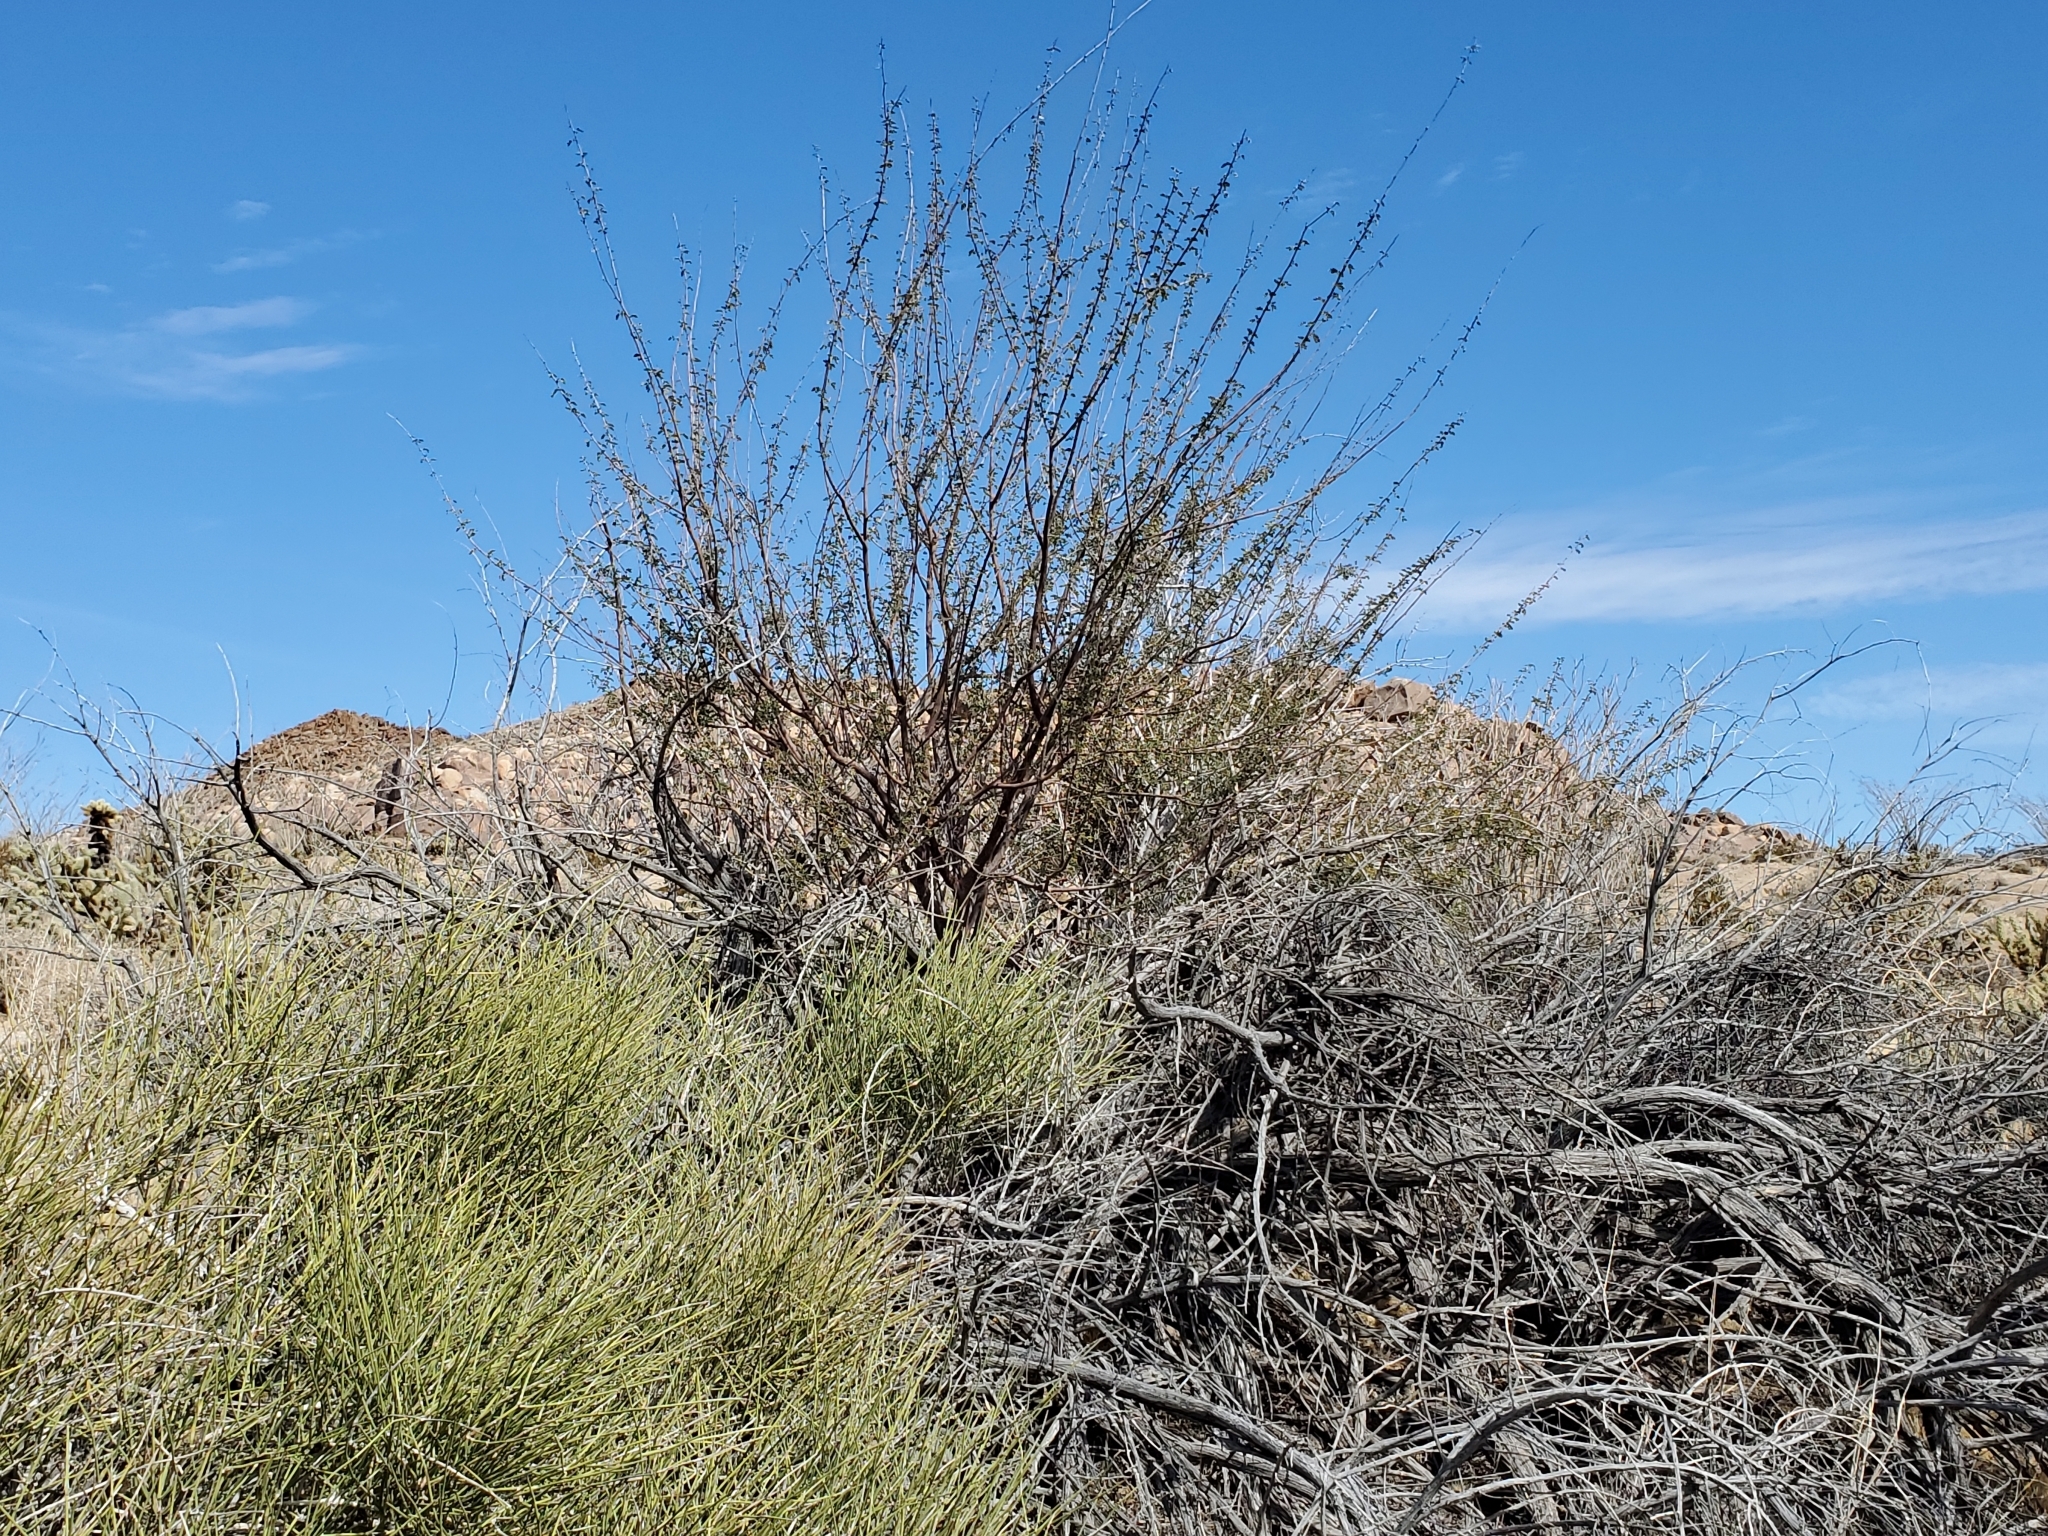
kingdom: Plantae
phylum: Tracheophyta
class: Magnoliopsida
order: Fabales
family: Fabaceae
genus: Senegalia
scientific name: Senegalia greggii
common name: Texas-mimosa
